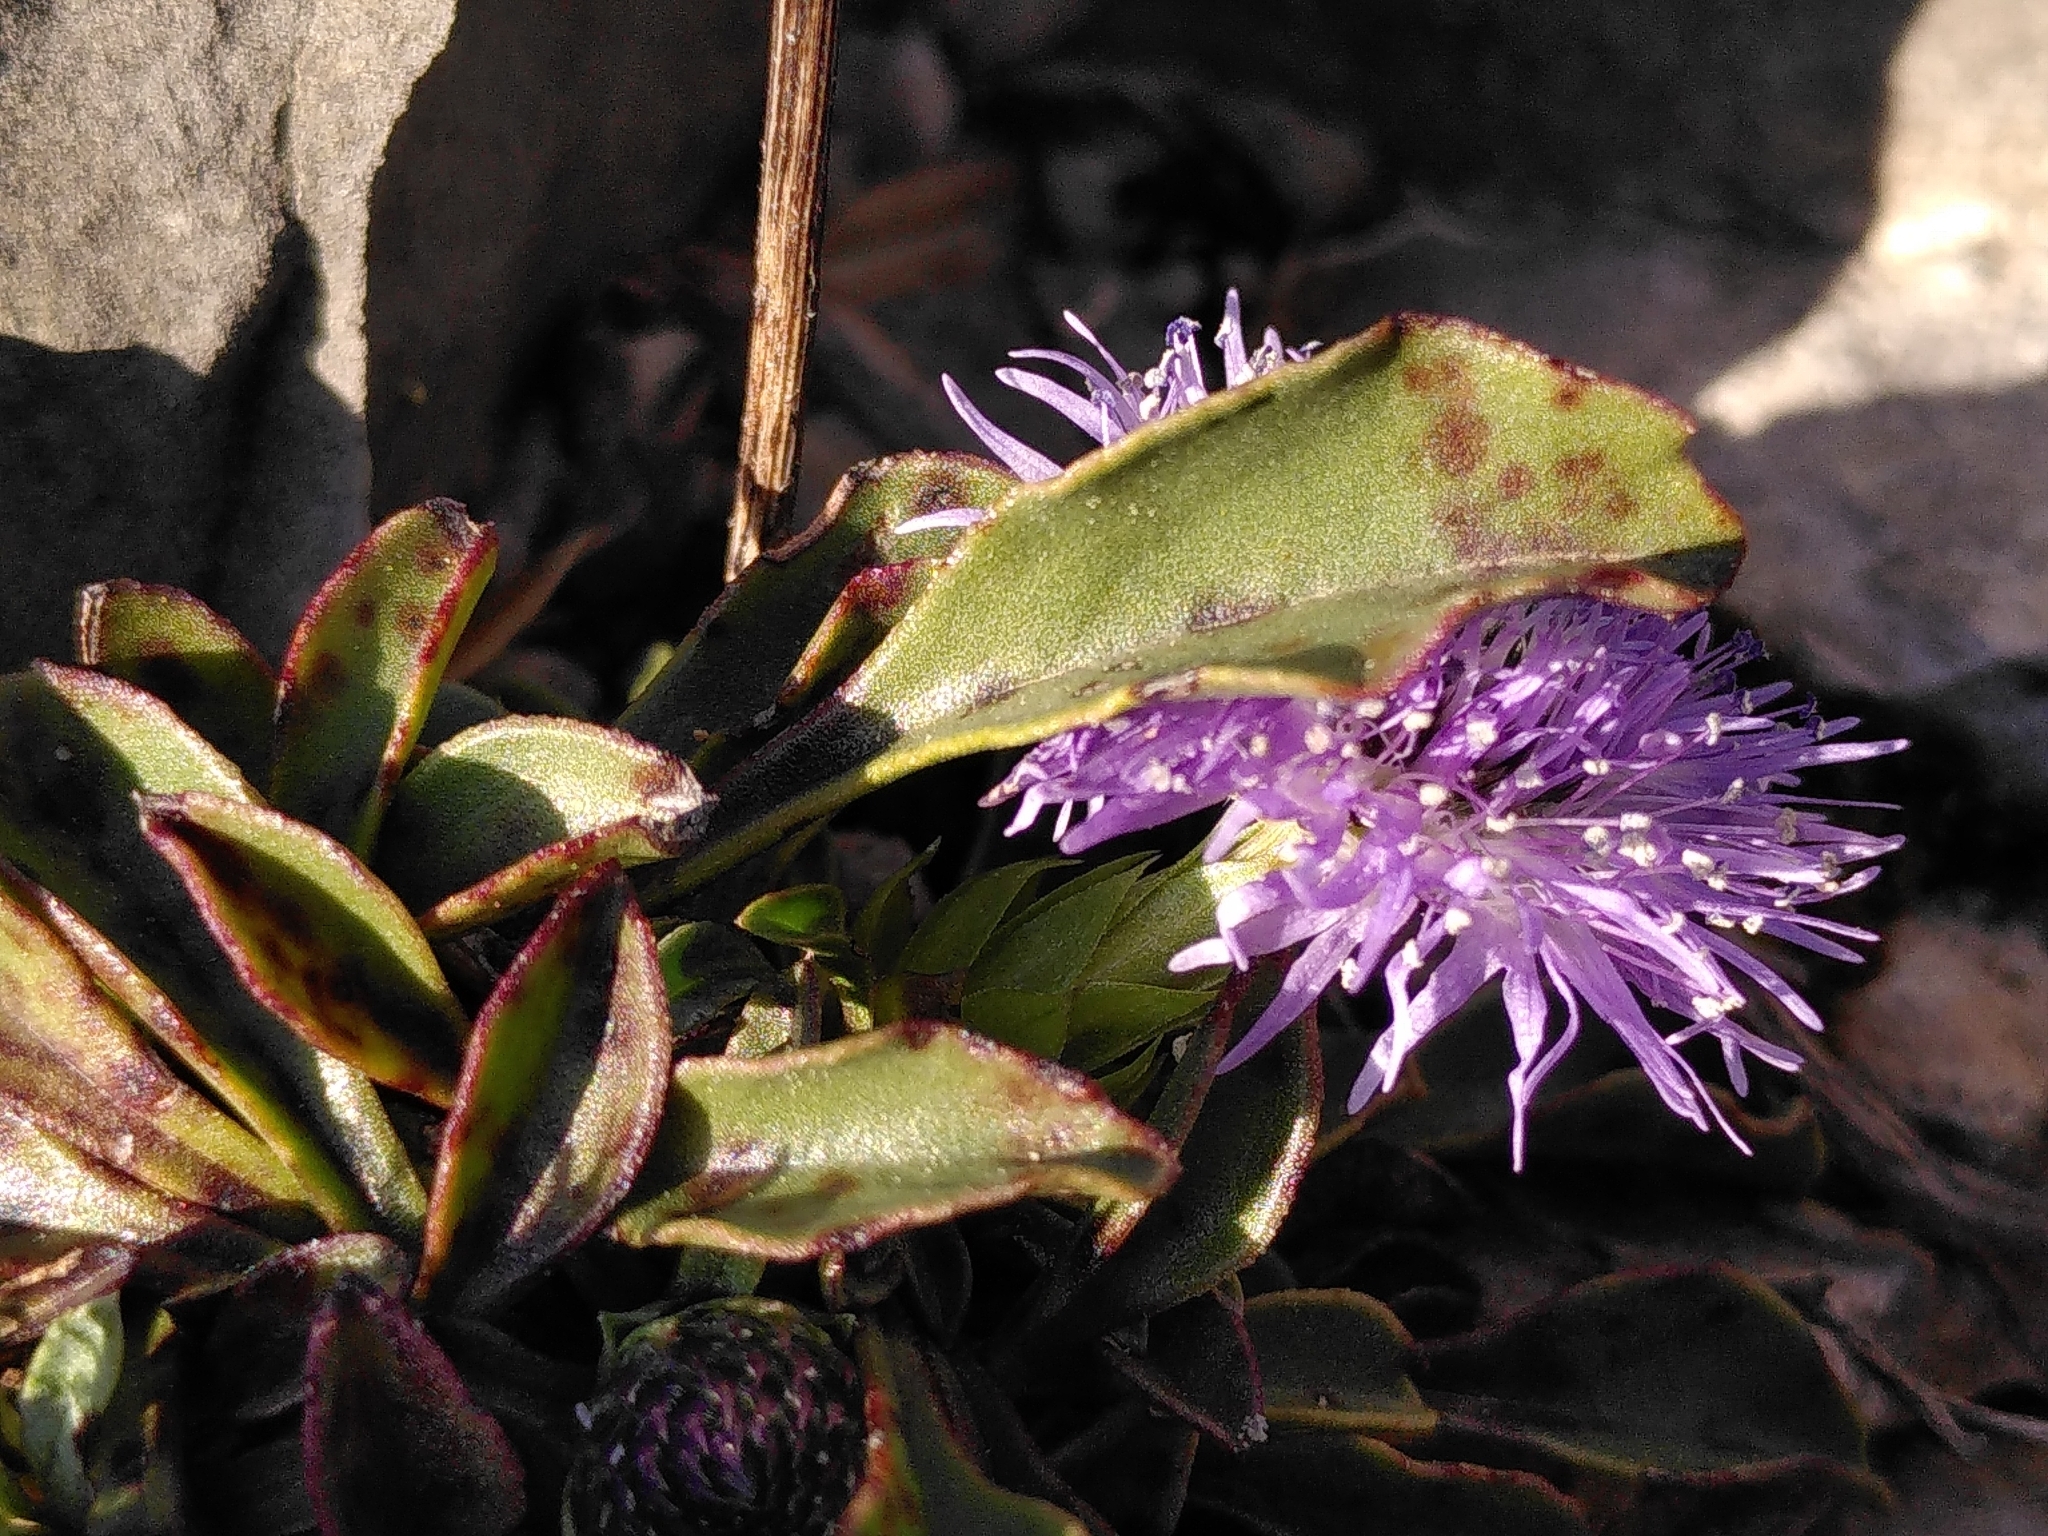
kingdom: Plantae
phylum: Tracheophyta
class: Magnoliopsida
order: Lamiales
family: Plantaginaceae
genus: Globularia
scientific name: Globularia vulgaris
